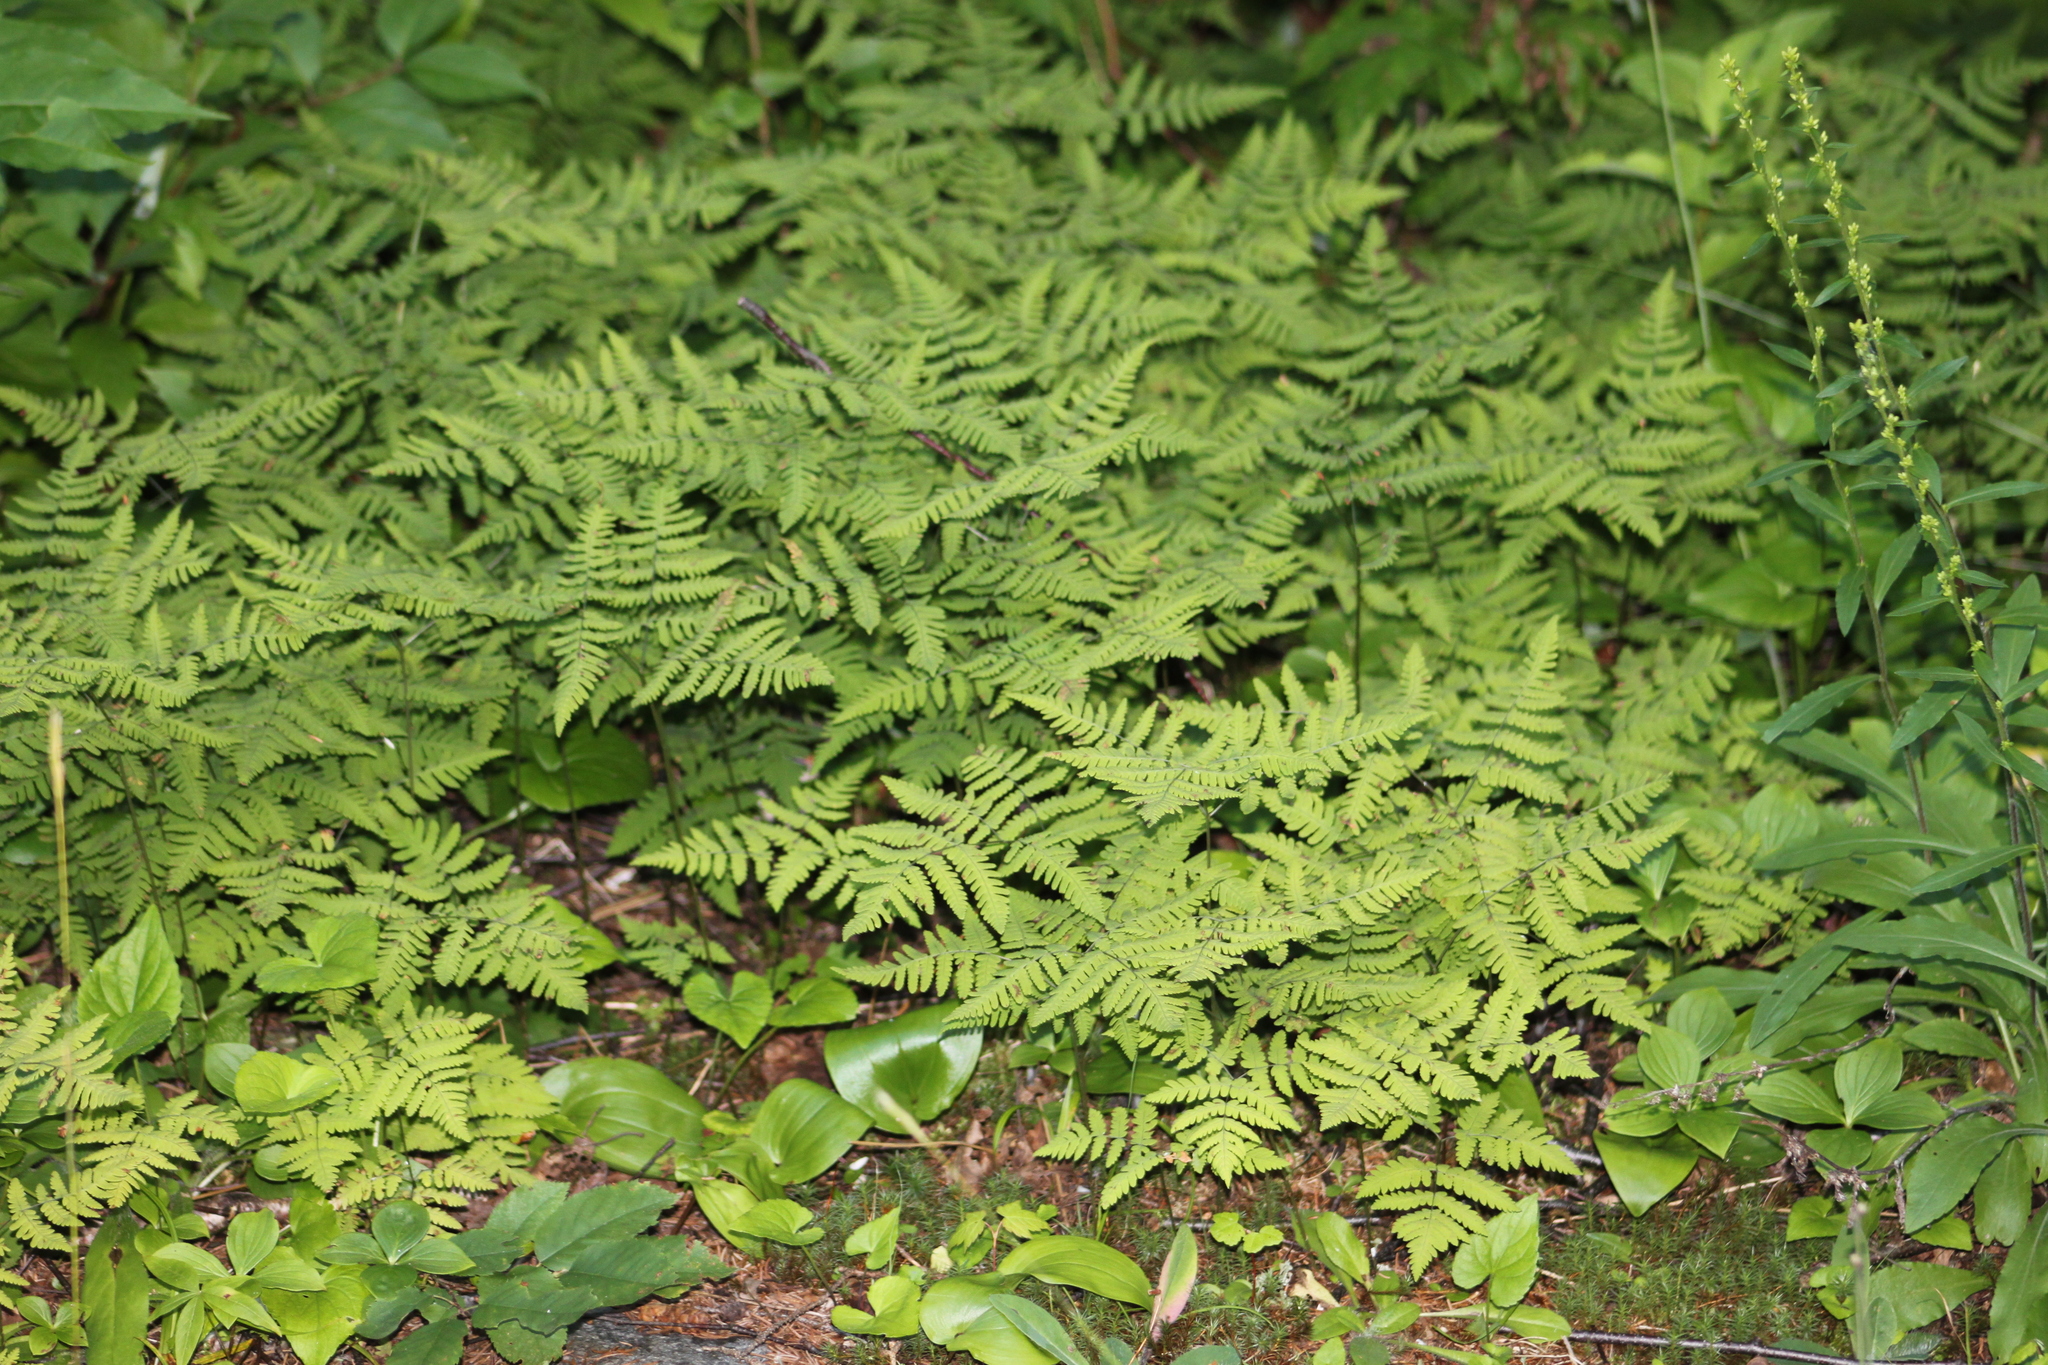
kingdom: Plantae
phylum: Tracheophyta
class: Polypodiopsida
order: Polypodiales
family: Cystopteridaceae
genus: Gymnocarpium
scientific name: Gymnocarpium dryopteris
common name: Oak fern
